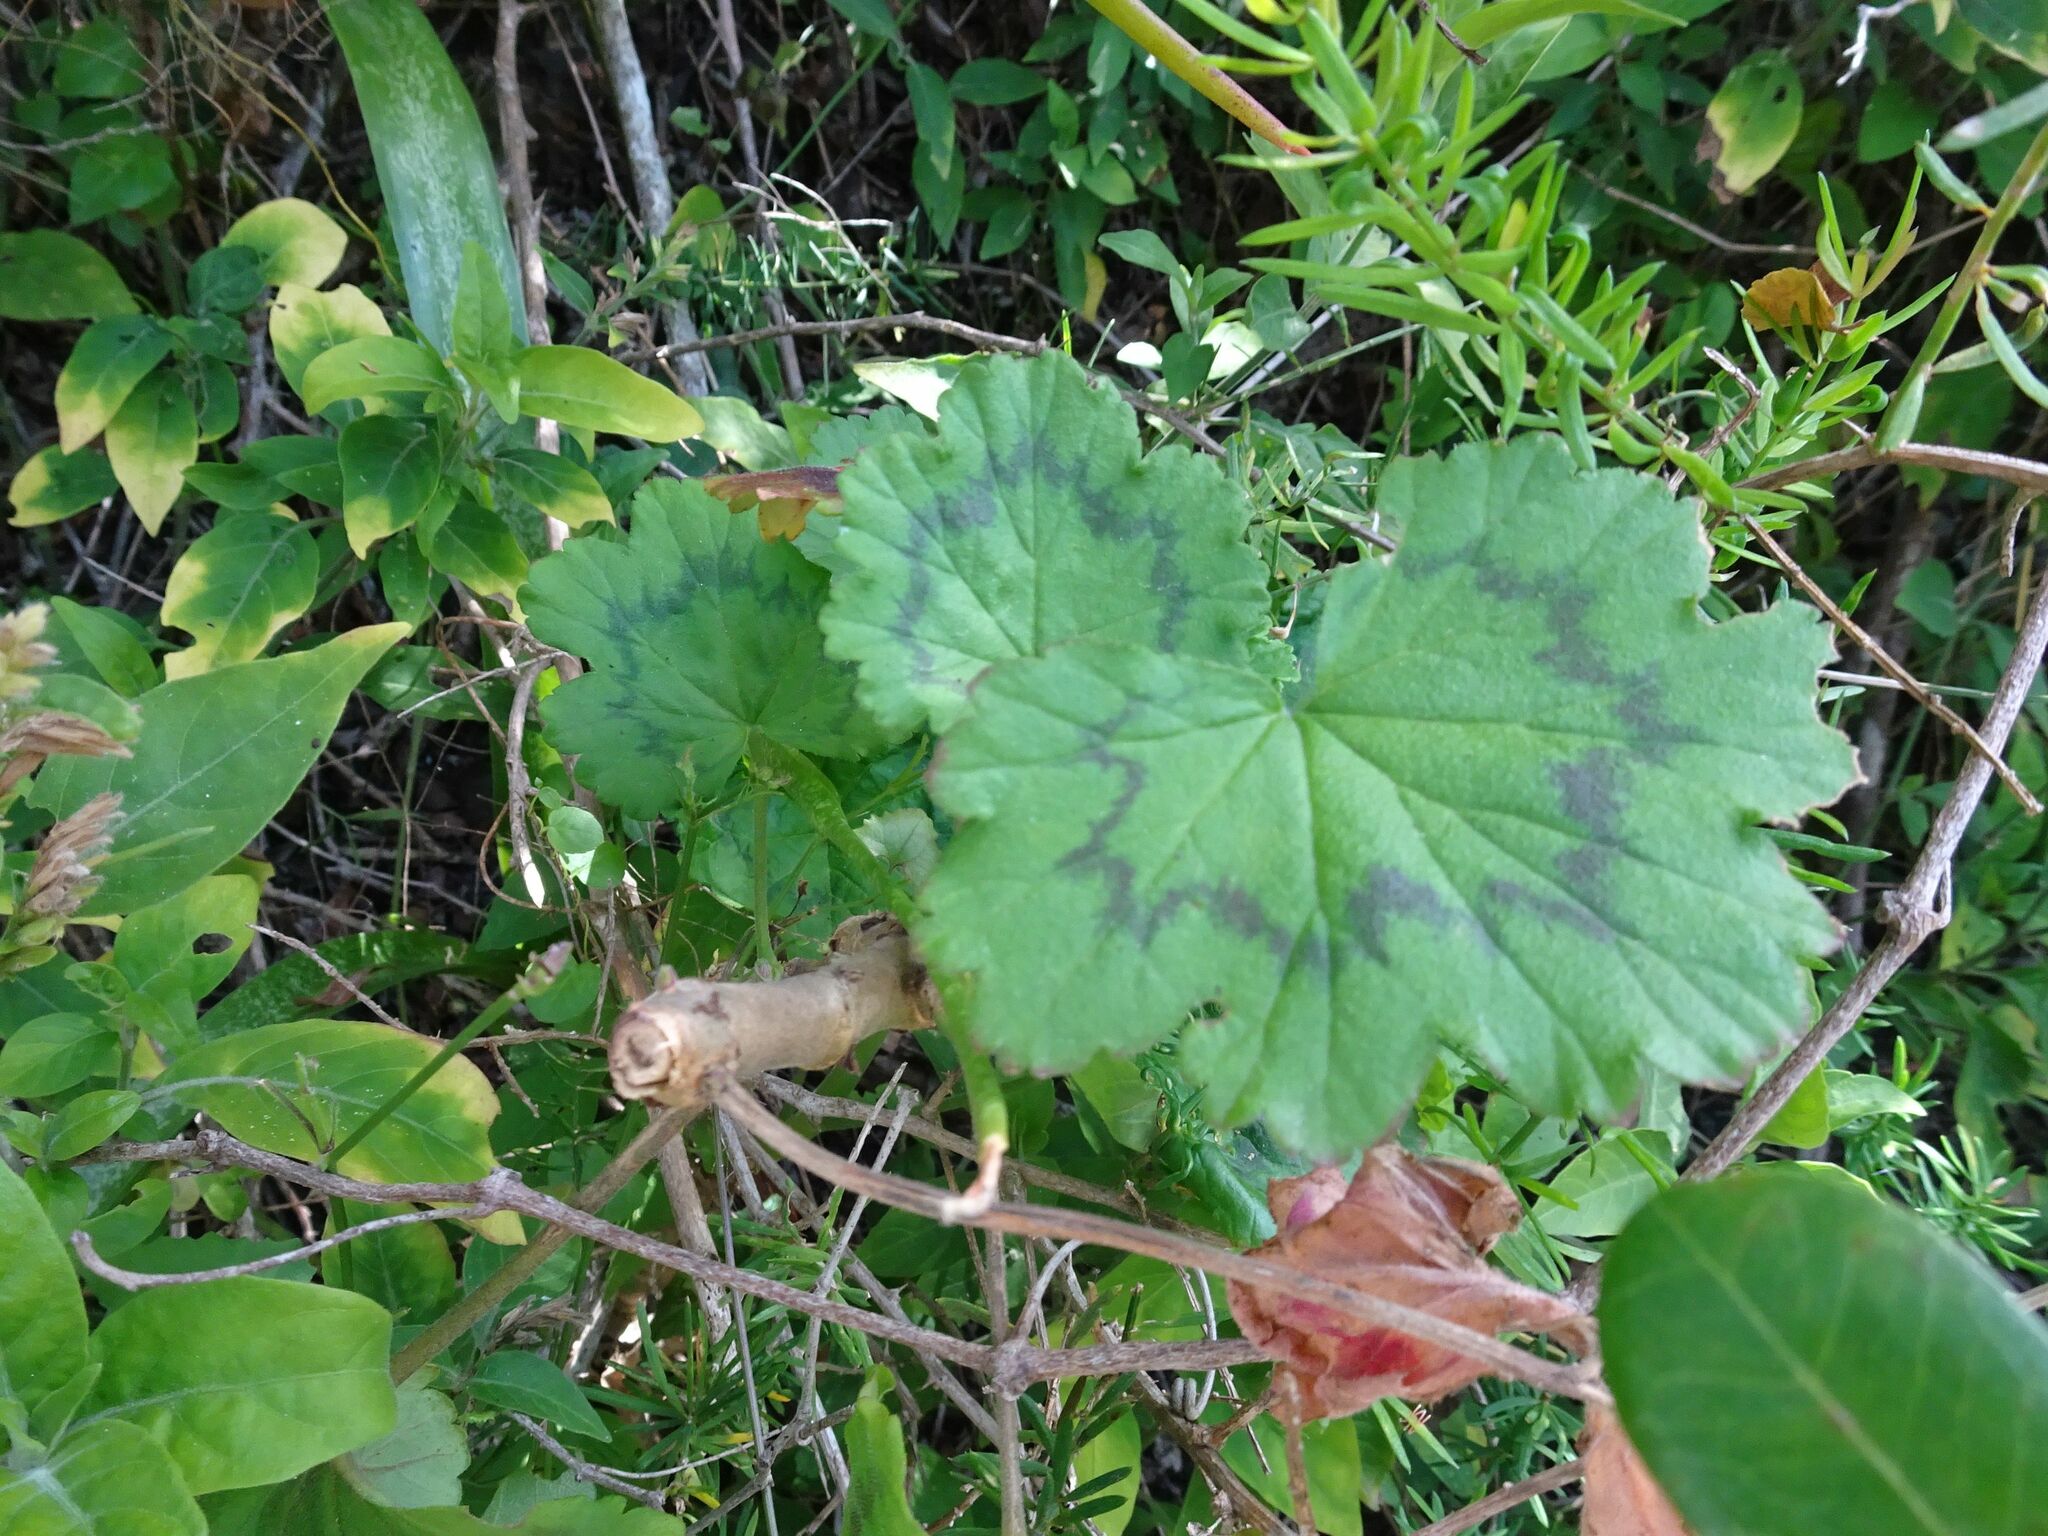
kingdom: Plantae
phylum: Tracheophyta
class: Magnoliopsida
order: Geraniales
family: Geraniaceae
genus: Pelargonium
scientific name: Pelargonium zonale
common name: Horseshoe geranium
